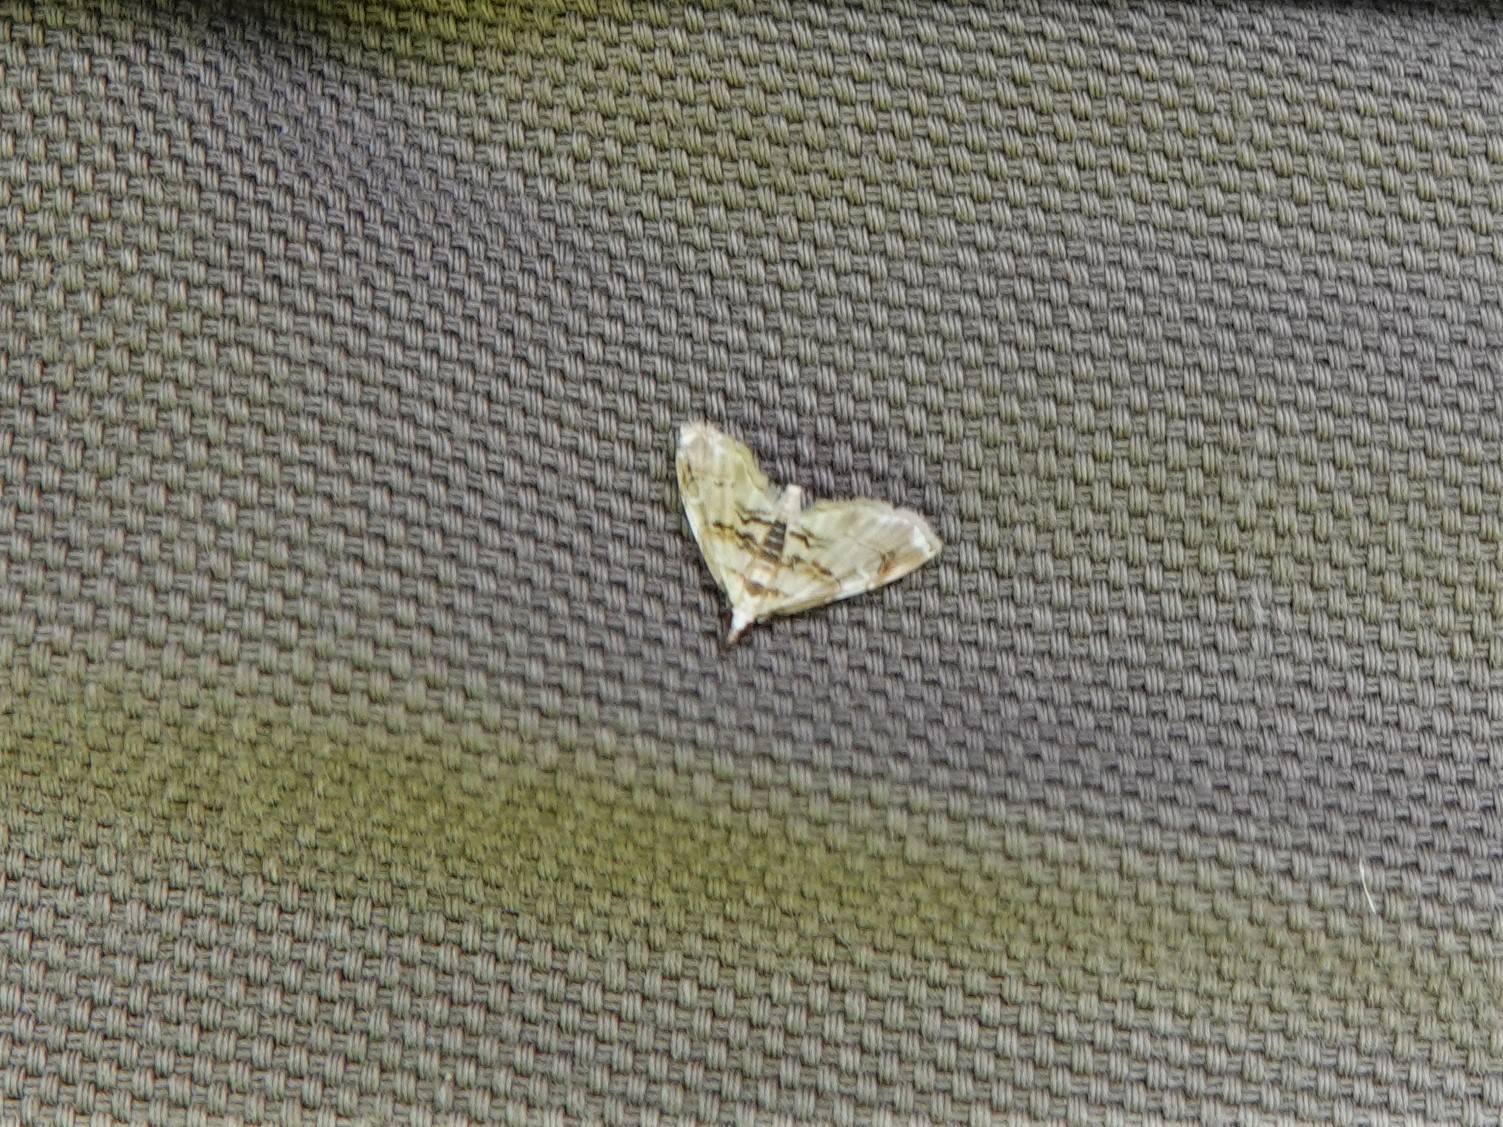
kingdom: Animalia
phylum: Arthropoda
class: Insecta
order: Lepidoptera
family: Crambidae
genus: Trichophysetis
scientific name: Trichophysetis
